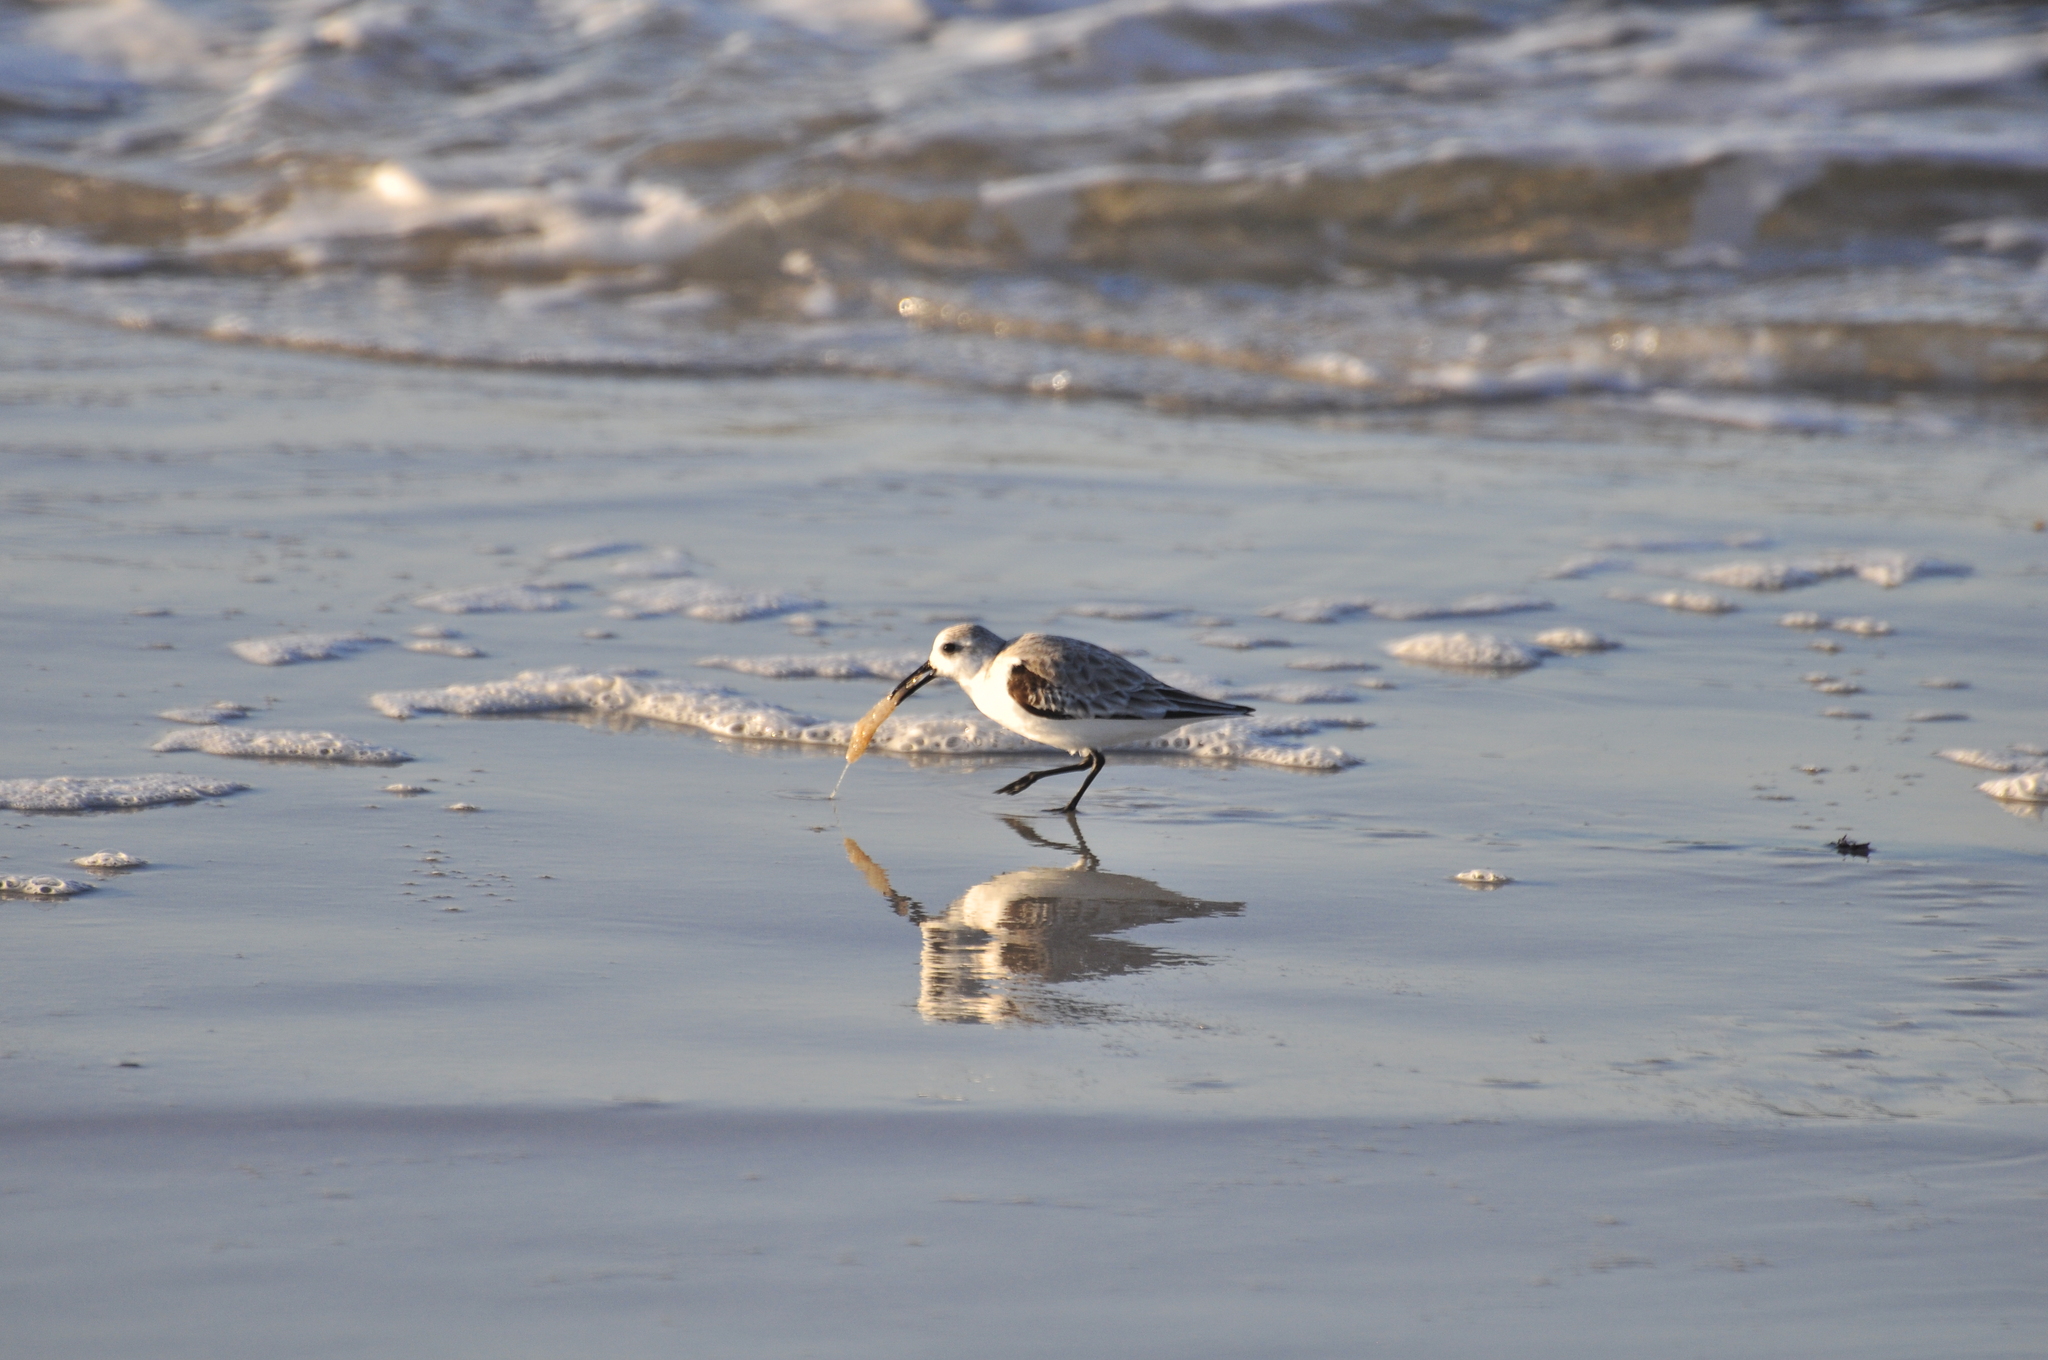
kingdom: Animalia
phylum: Chordata
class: Aves
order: Charadriiformes
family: Scolopacidae
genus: Calidris
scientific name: Calidris alba
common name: Sanderling
